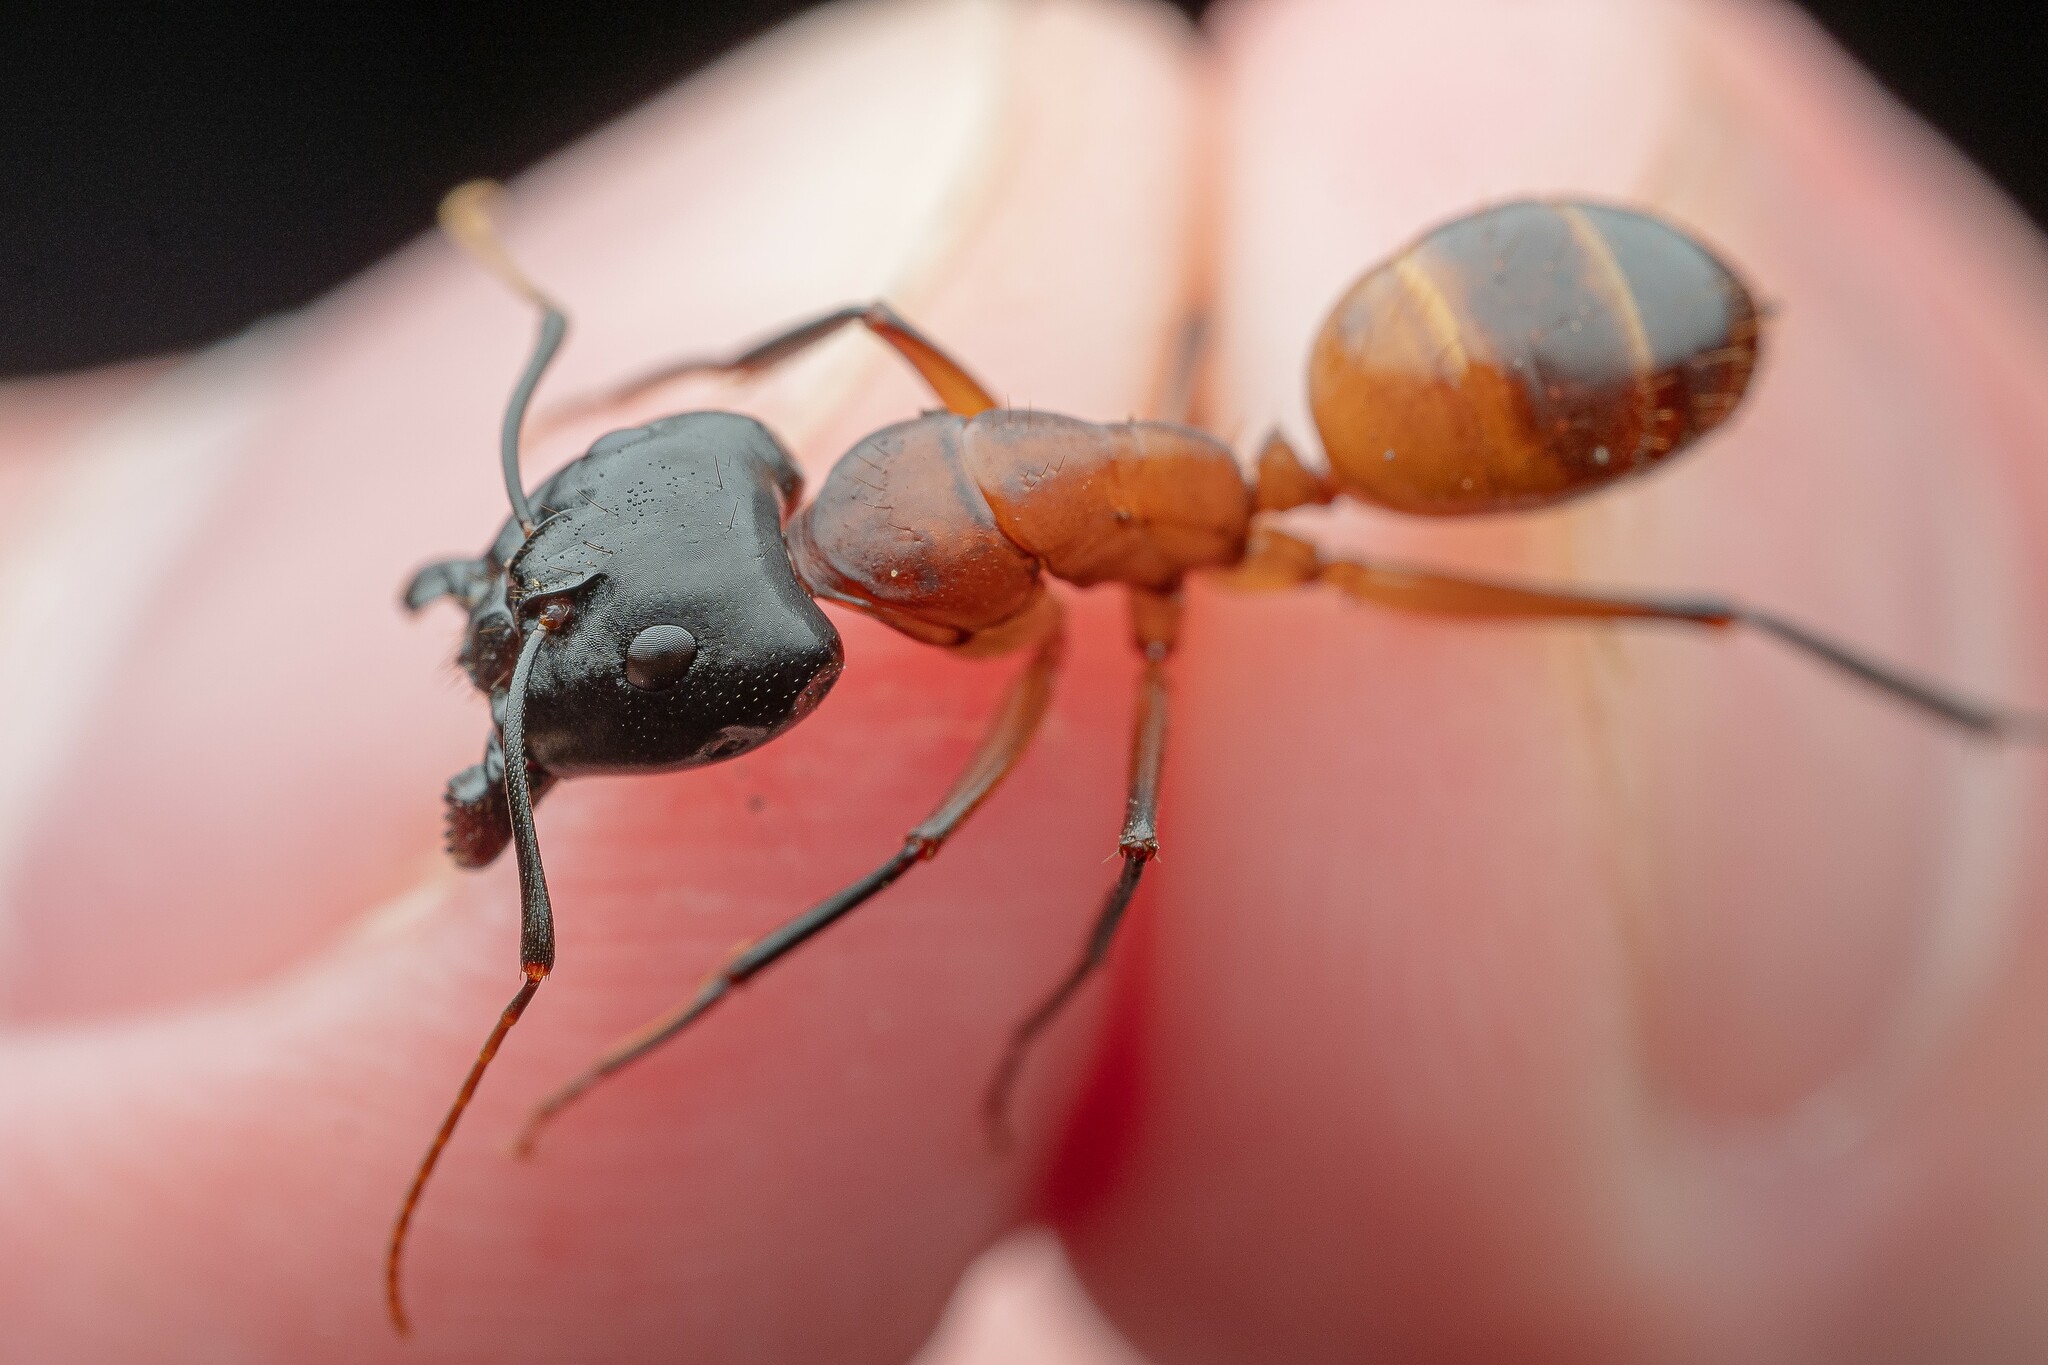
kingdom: Animalia
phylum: Arthropoda
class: Insecta
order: Hymenoptera
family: Formicidae
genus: Camponotus
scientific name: Camponotus ocreatus
